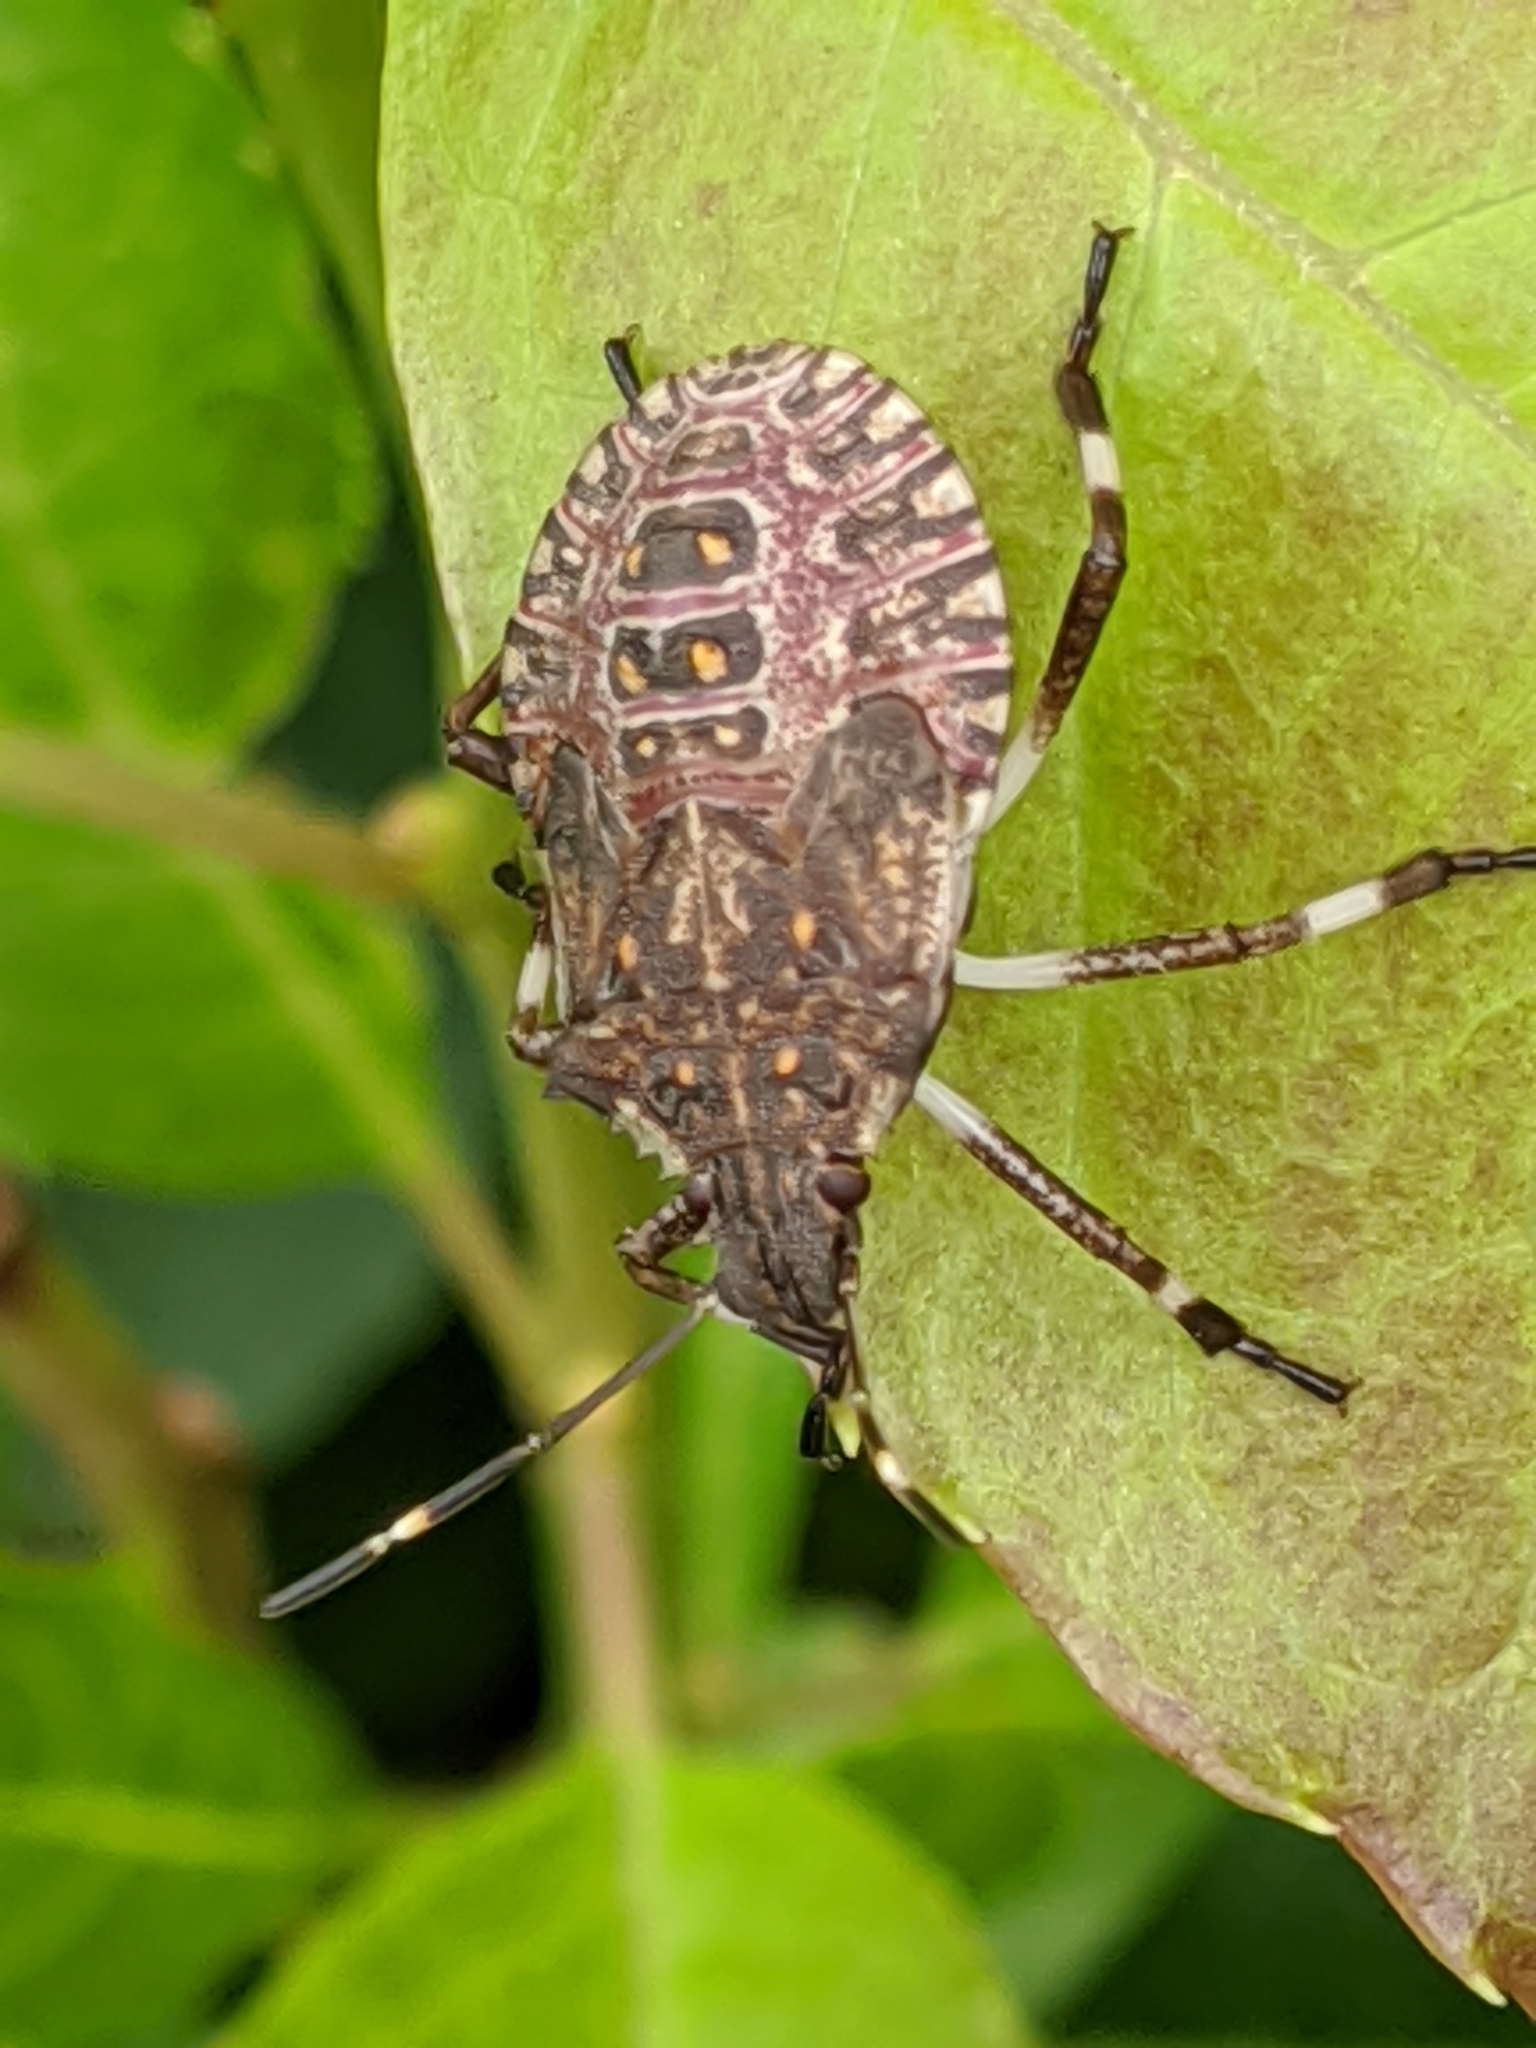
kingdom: Animalia
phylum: Arthropoda
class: Insecta
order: Hemiptera
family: Pentatomidae
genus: Halyomorpha
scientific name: Halyomorpha halys
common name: Brown marmorated stink bug
